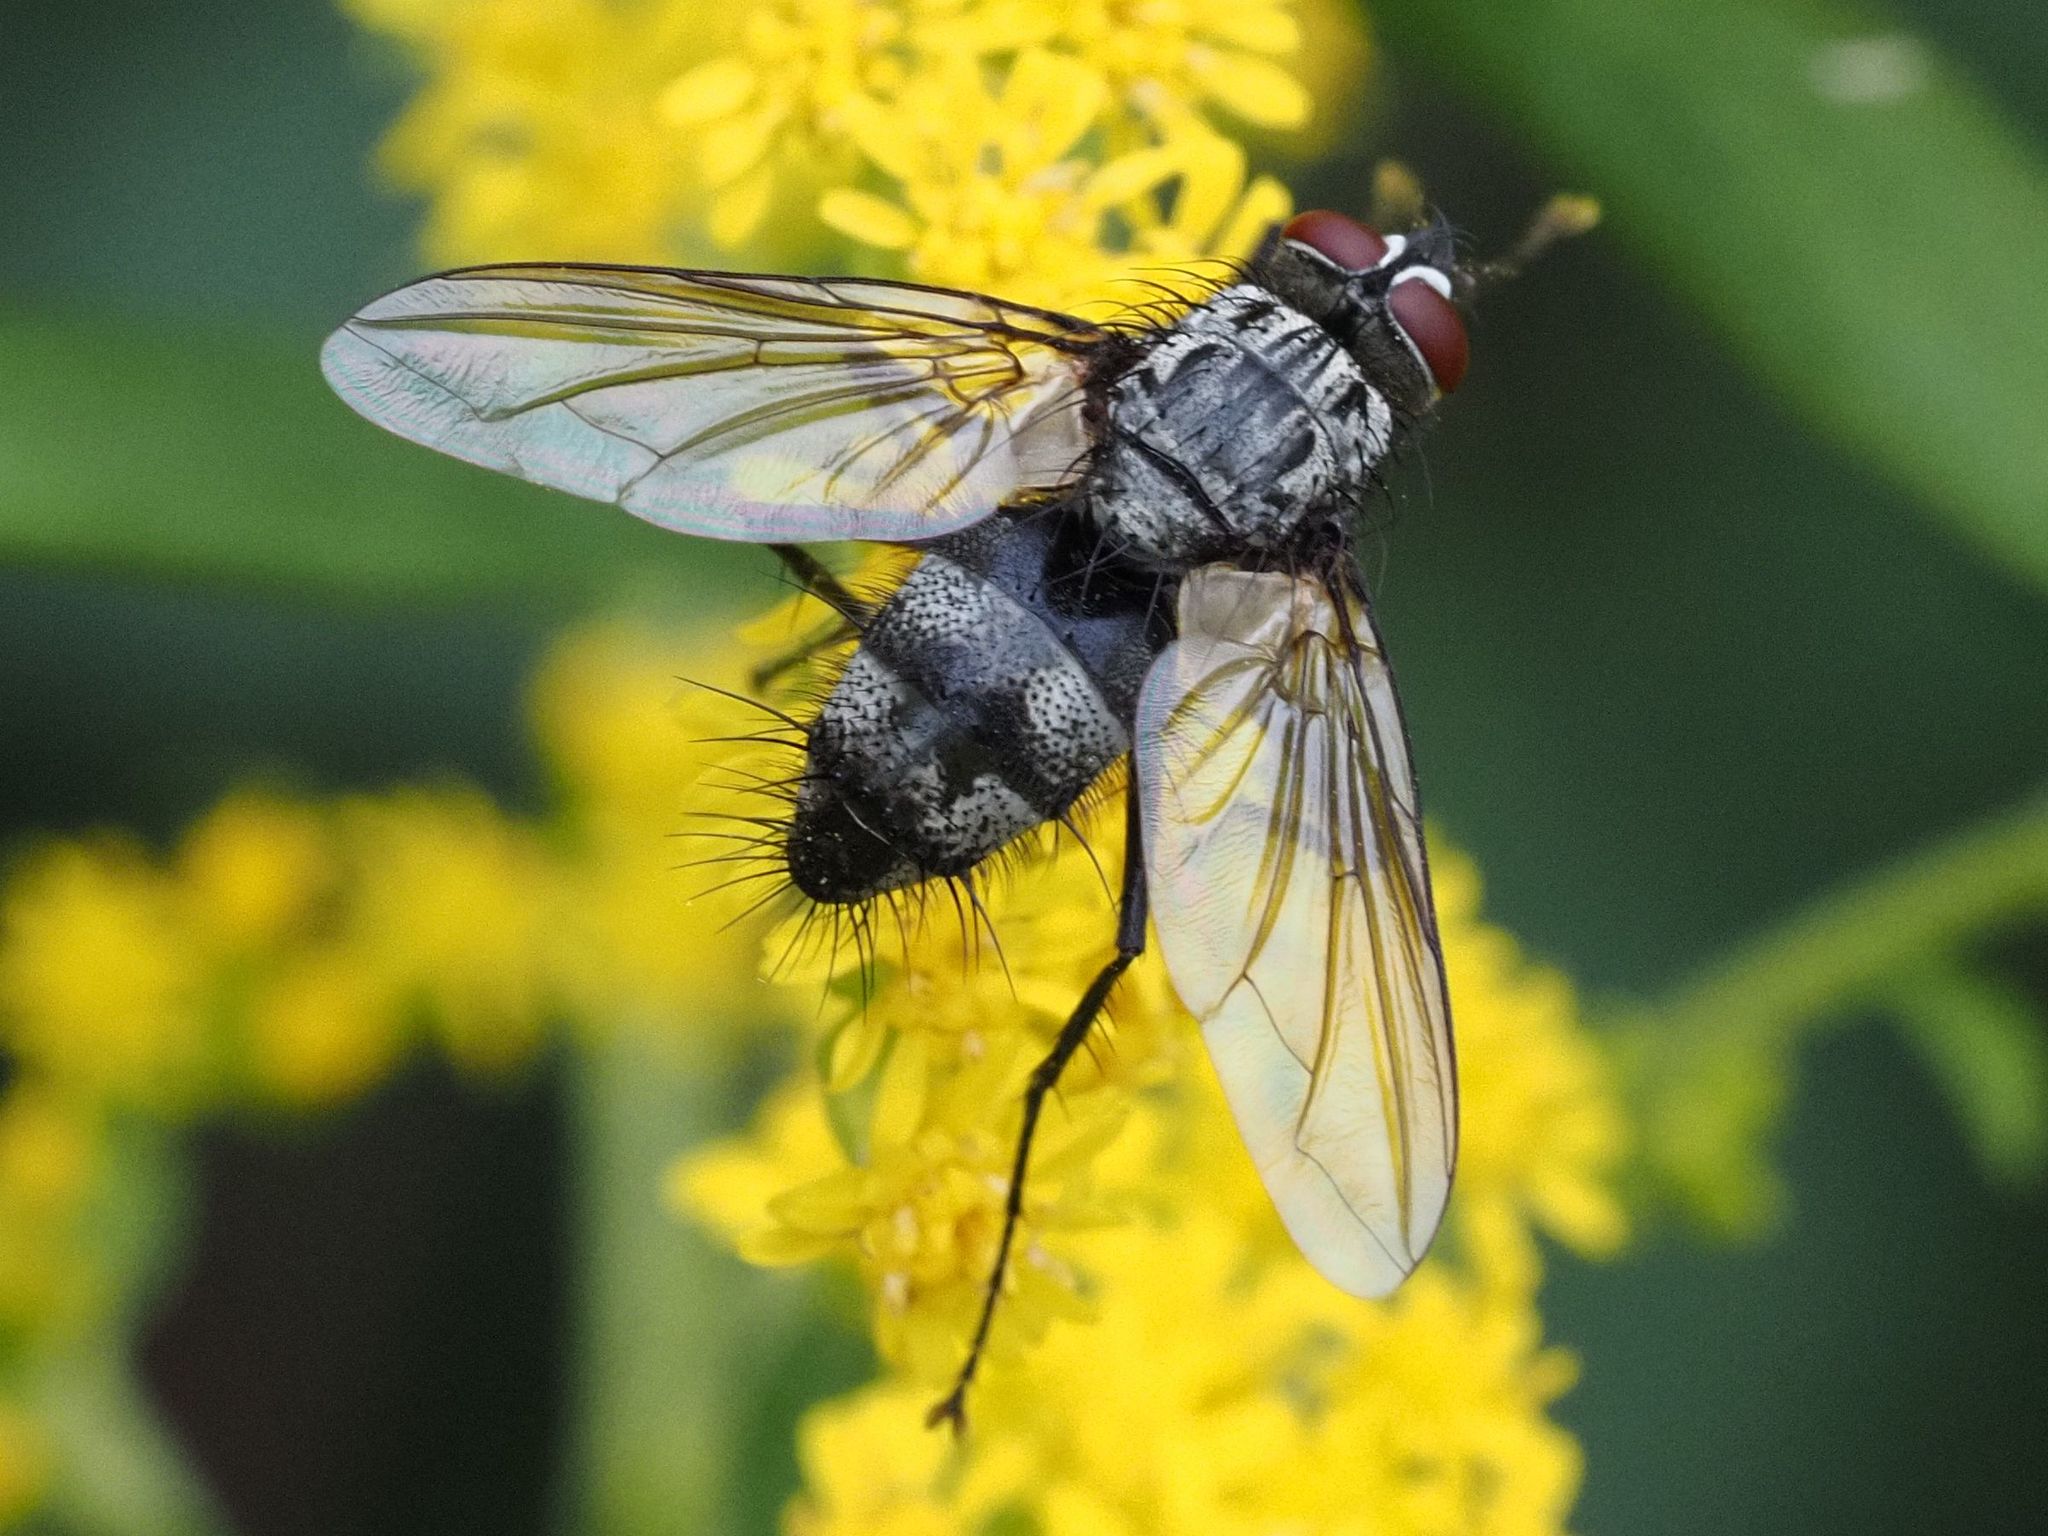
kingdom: Animalia
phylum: Arthropoda
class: Insecta
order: Diptera
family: Tachinidae
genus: Dinera
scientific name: Dinera ferina
